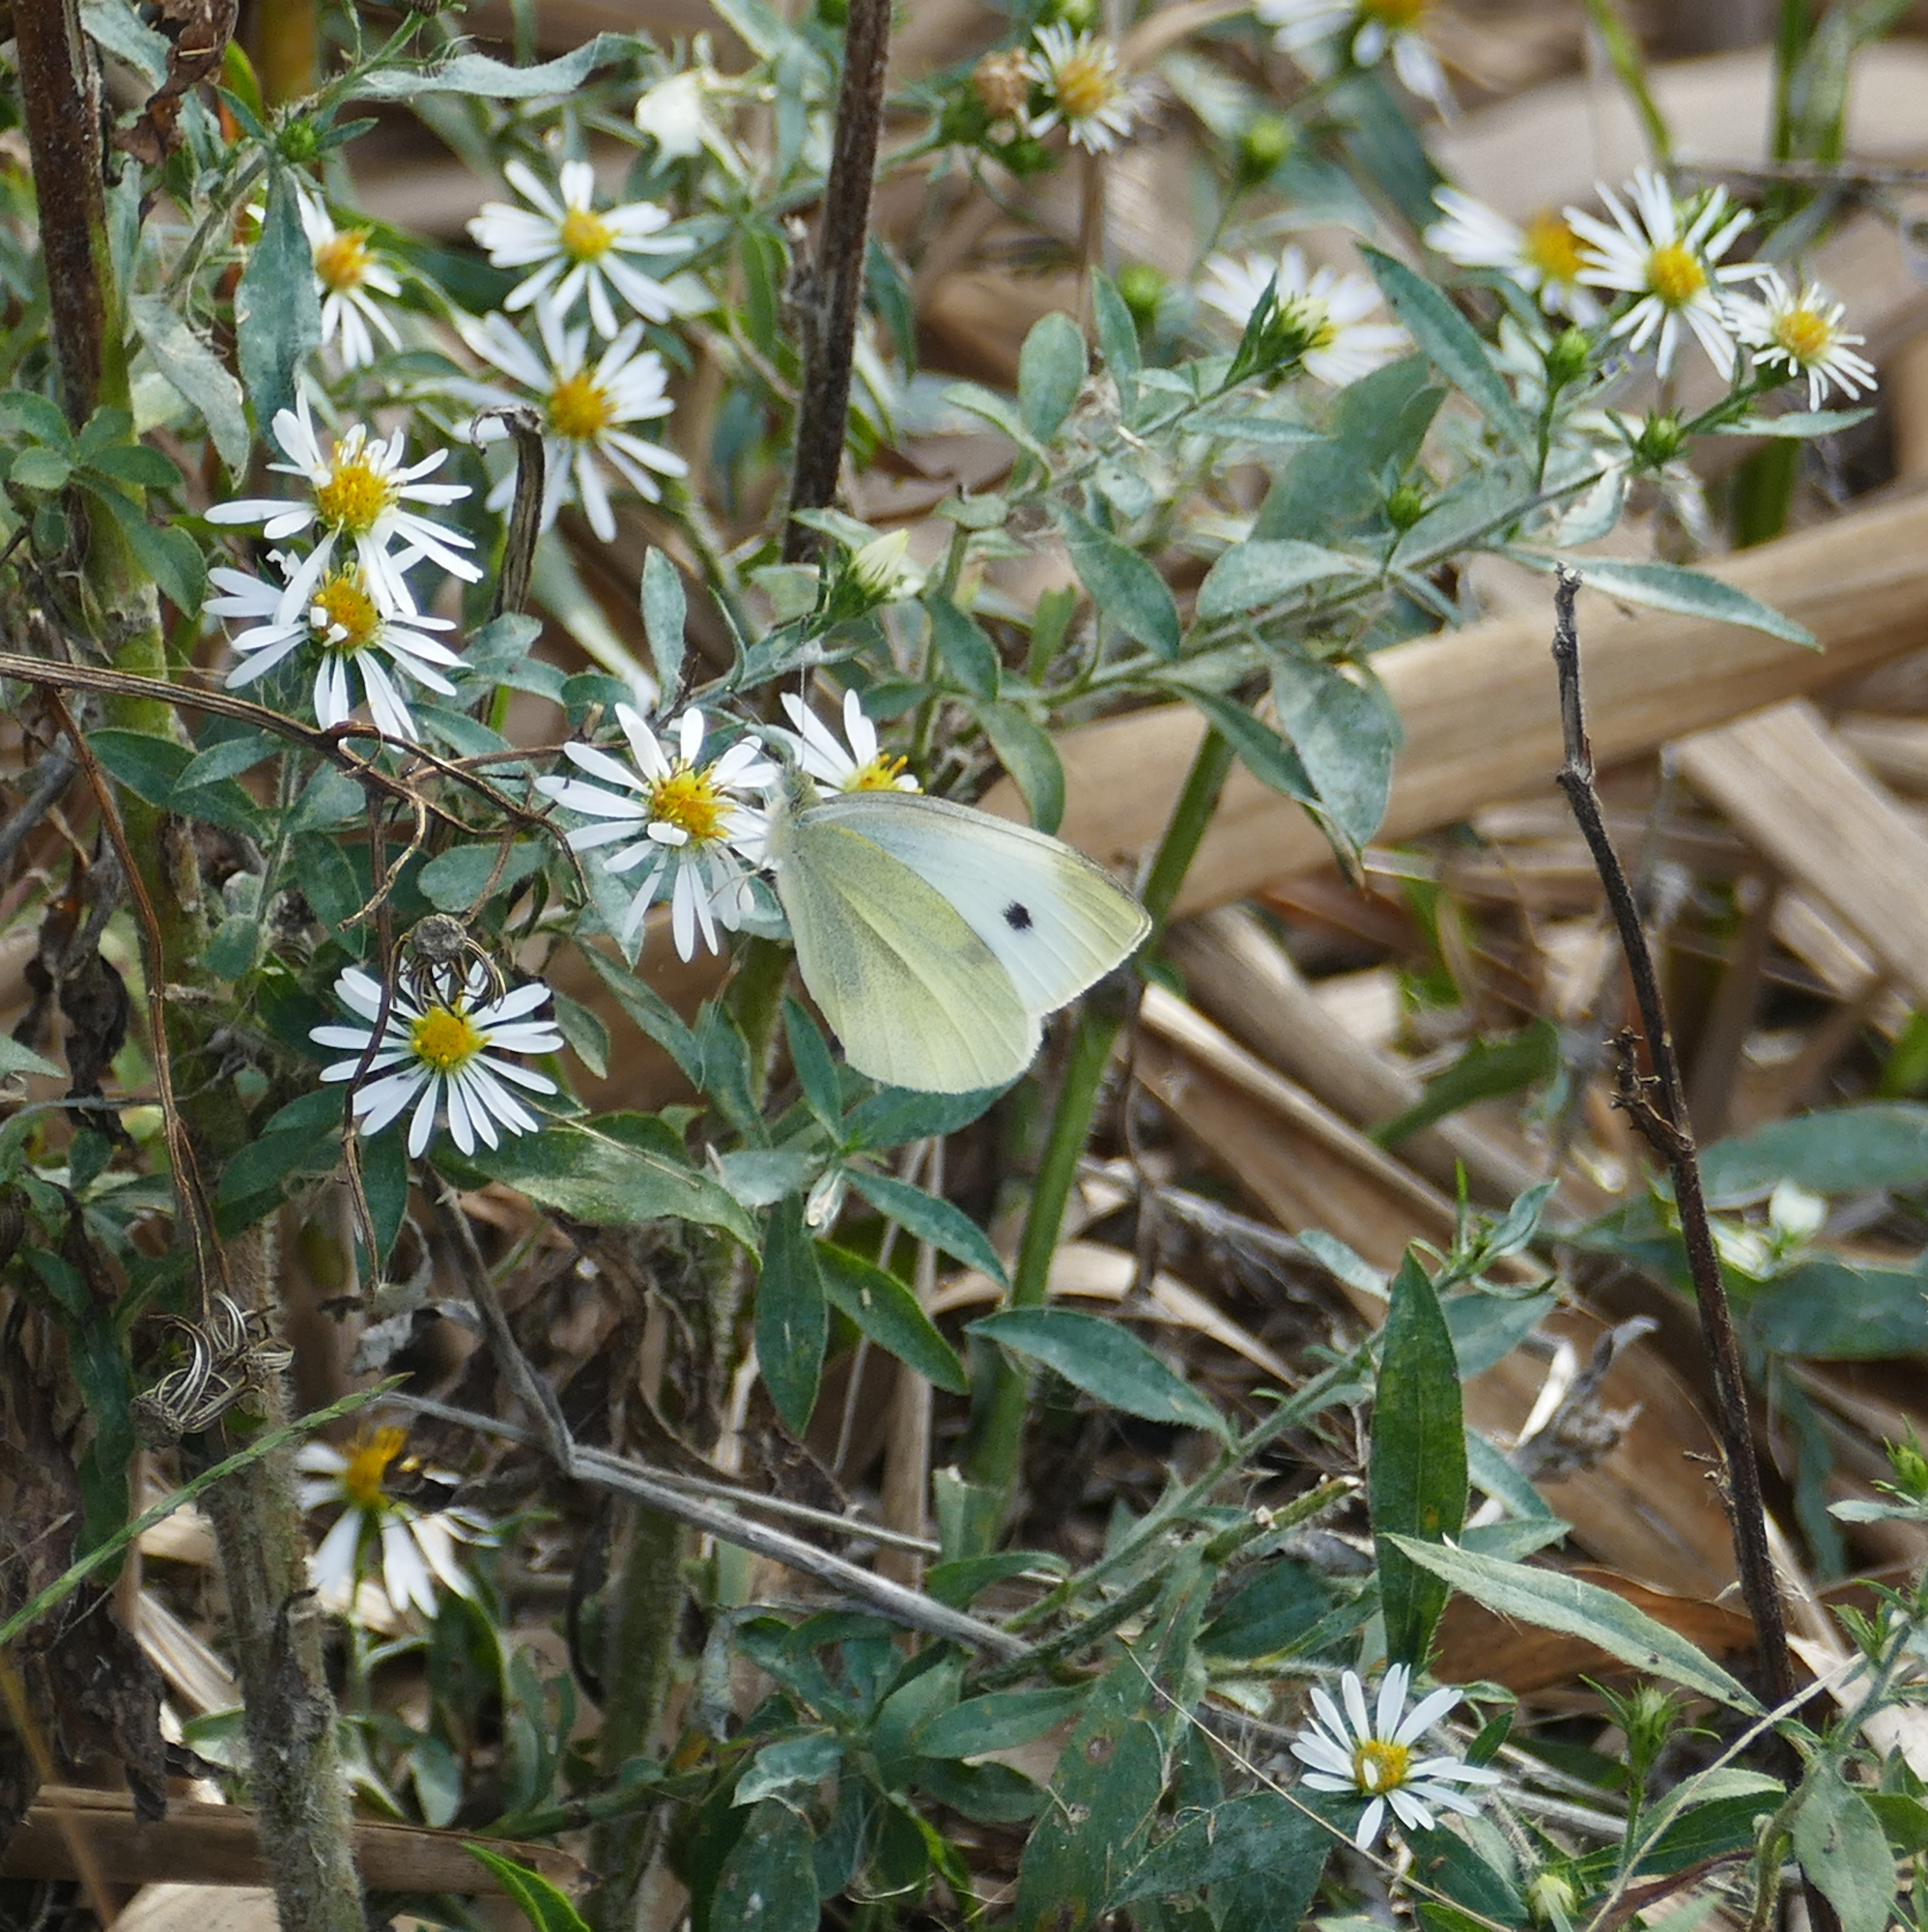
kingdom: Animalia
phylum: Arthropoda
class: Insecta
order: Lepidoptera
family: Pieridae
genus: Pieris
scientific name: Pieris rapae
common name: Small white
